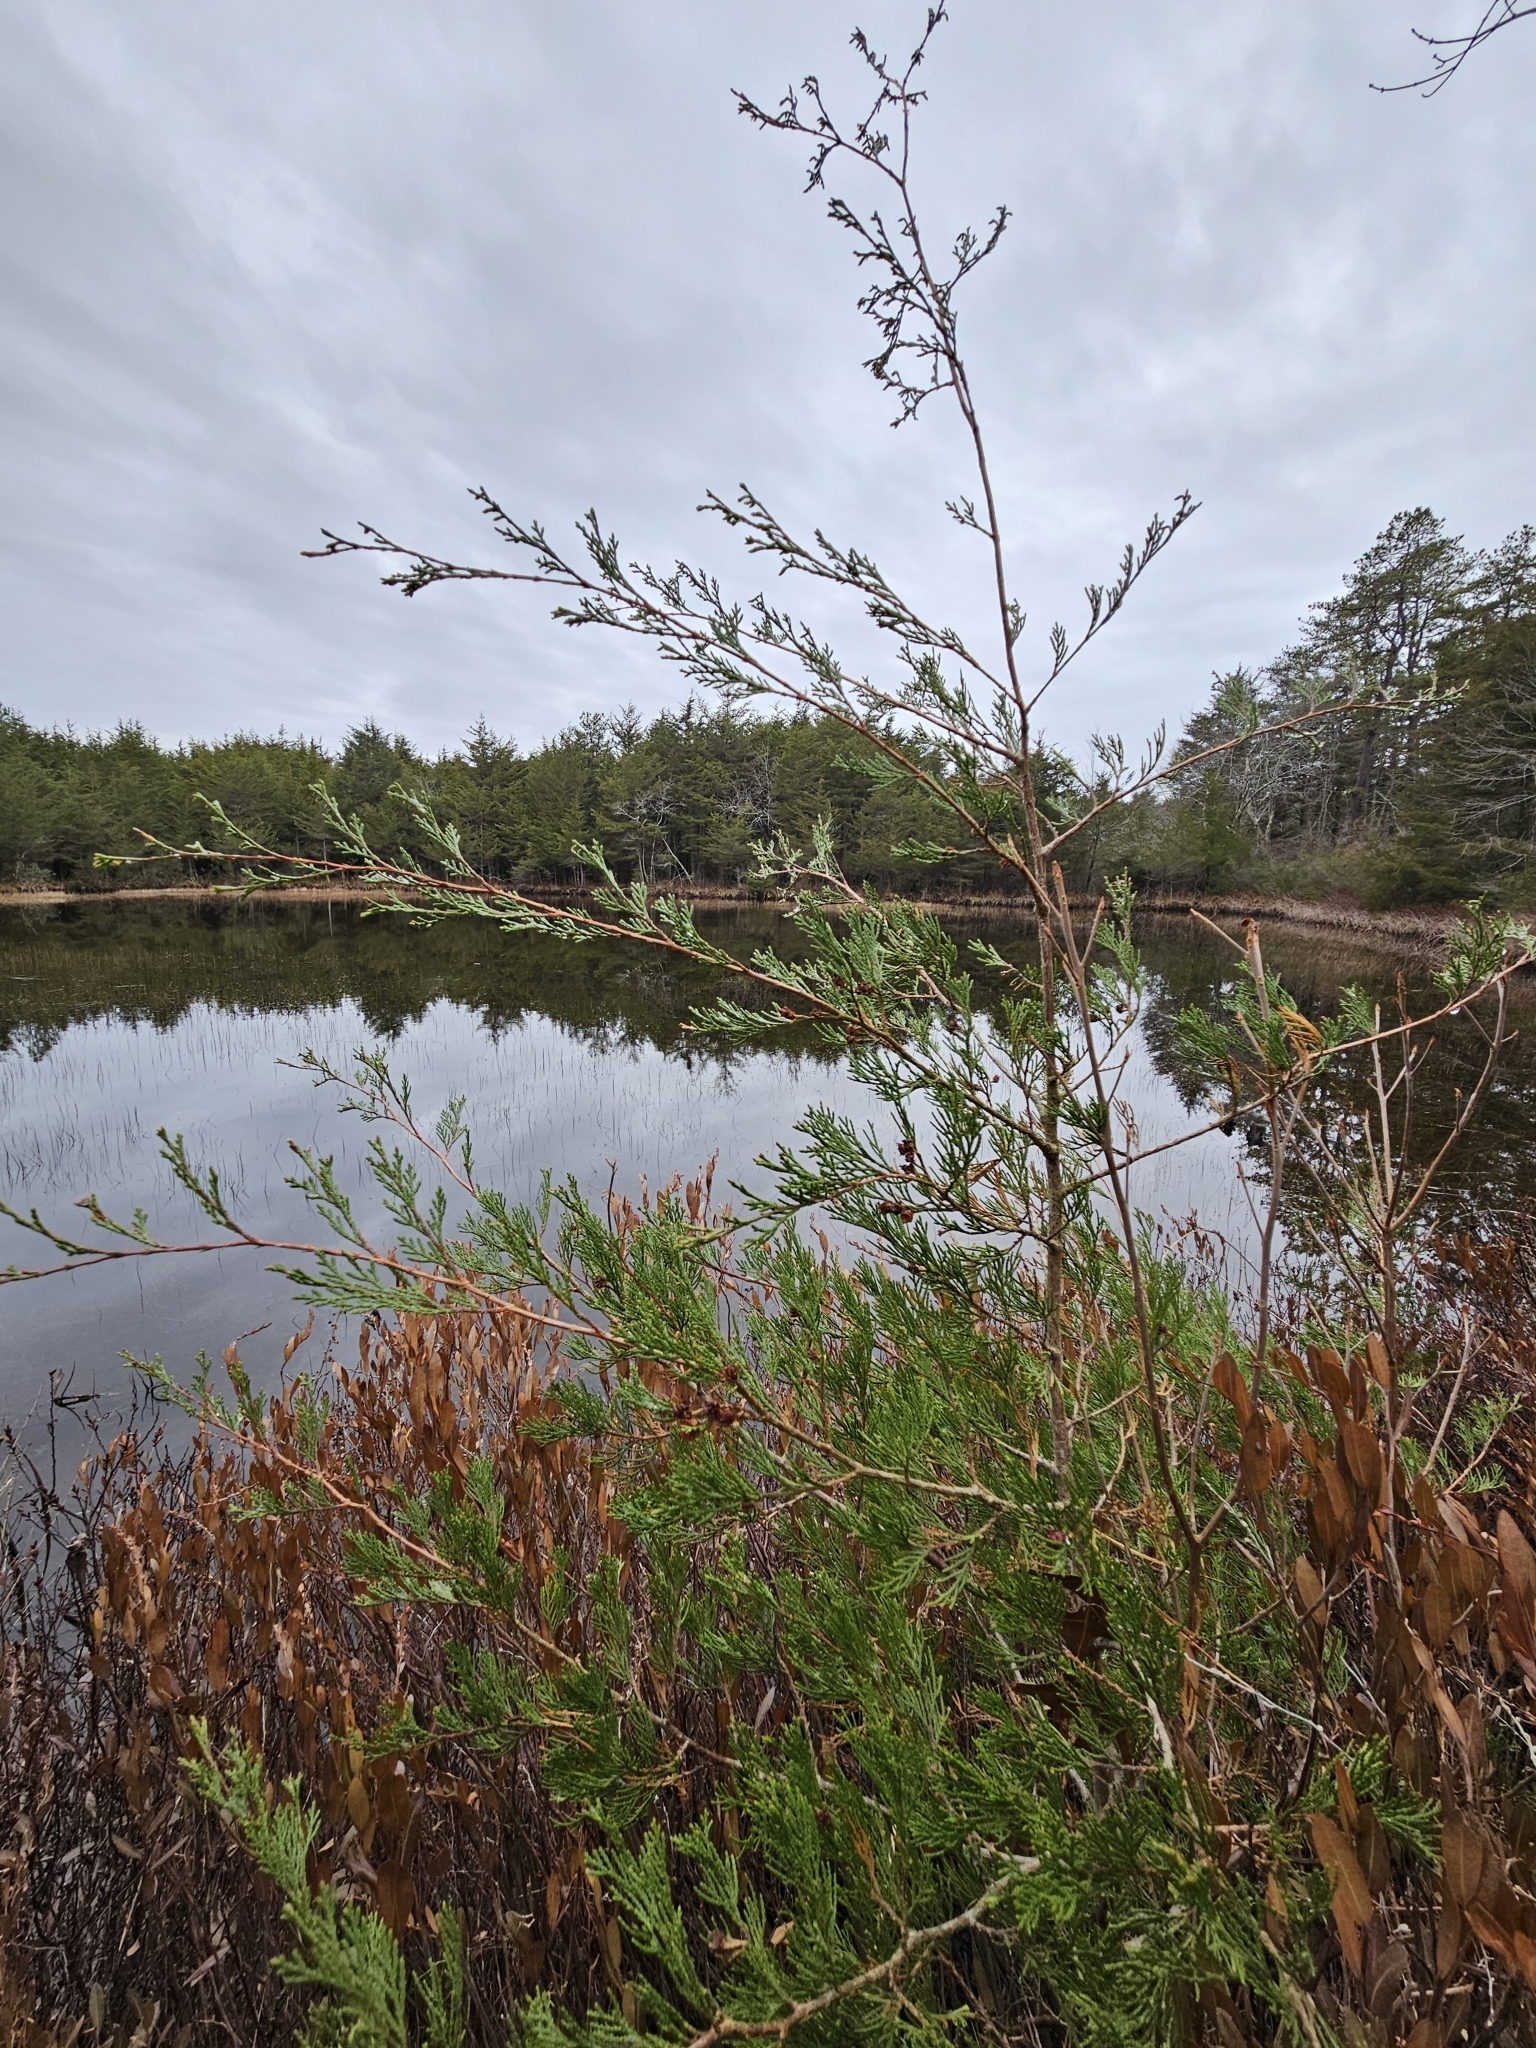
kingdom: Plantae
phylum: Tracheophyta
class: Pinopsida
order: Pinales
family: Cupressaceae
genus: Chamaecyparis
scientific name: Chamaecyparis thyoides
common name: Atlantic white cedar
